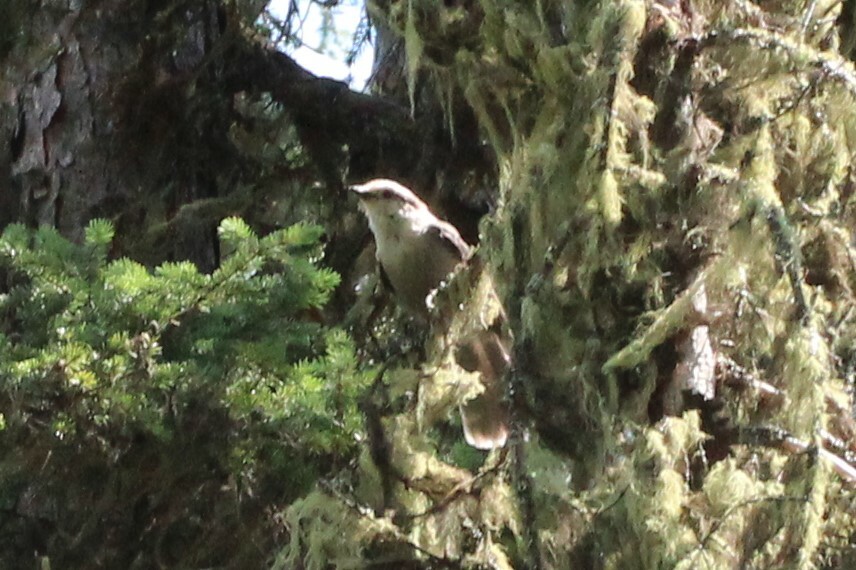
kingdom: Animalia
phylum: Chordata
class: Aves
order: Passeriformes
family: Corvidae
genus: Perisoreus
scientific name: Perisoreus canadensis
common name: Gray jay
